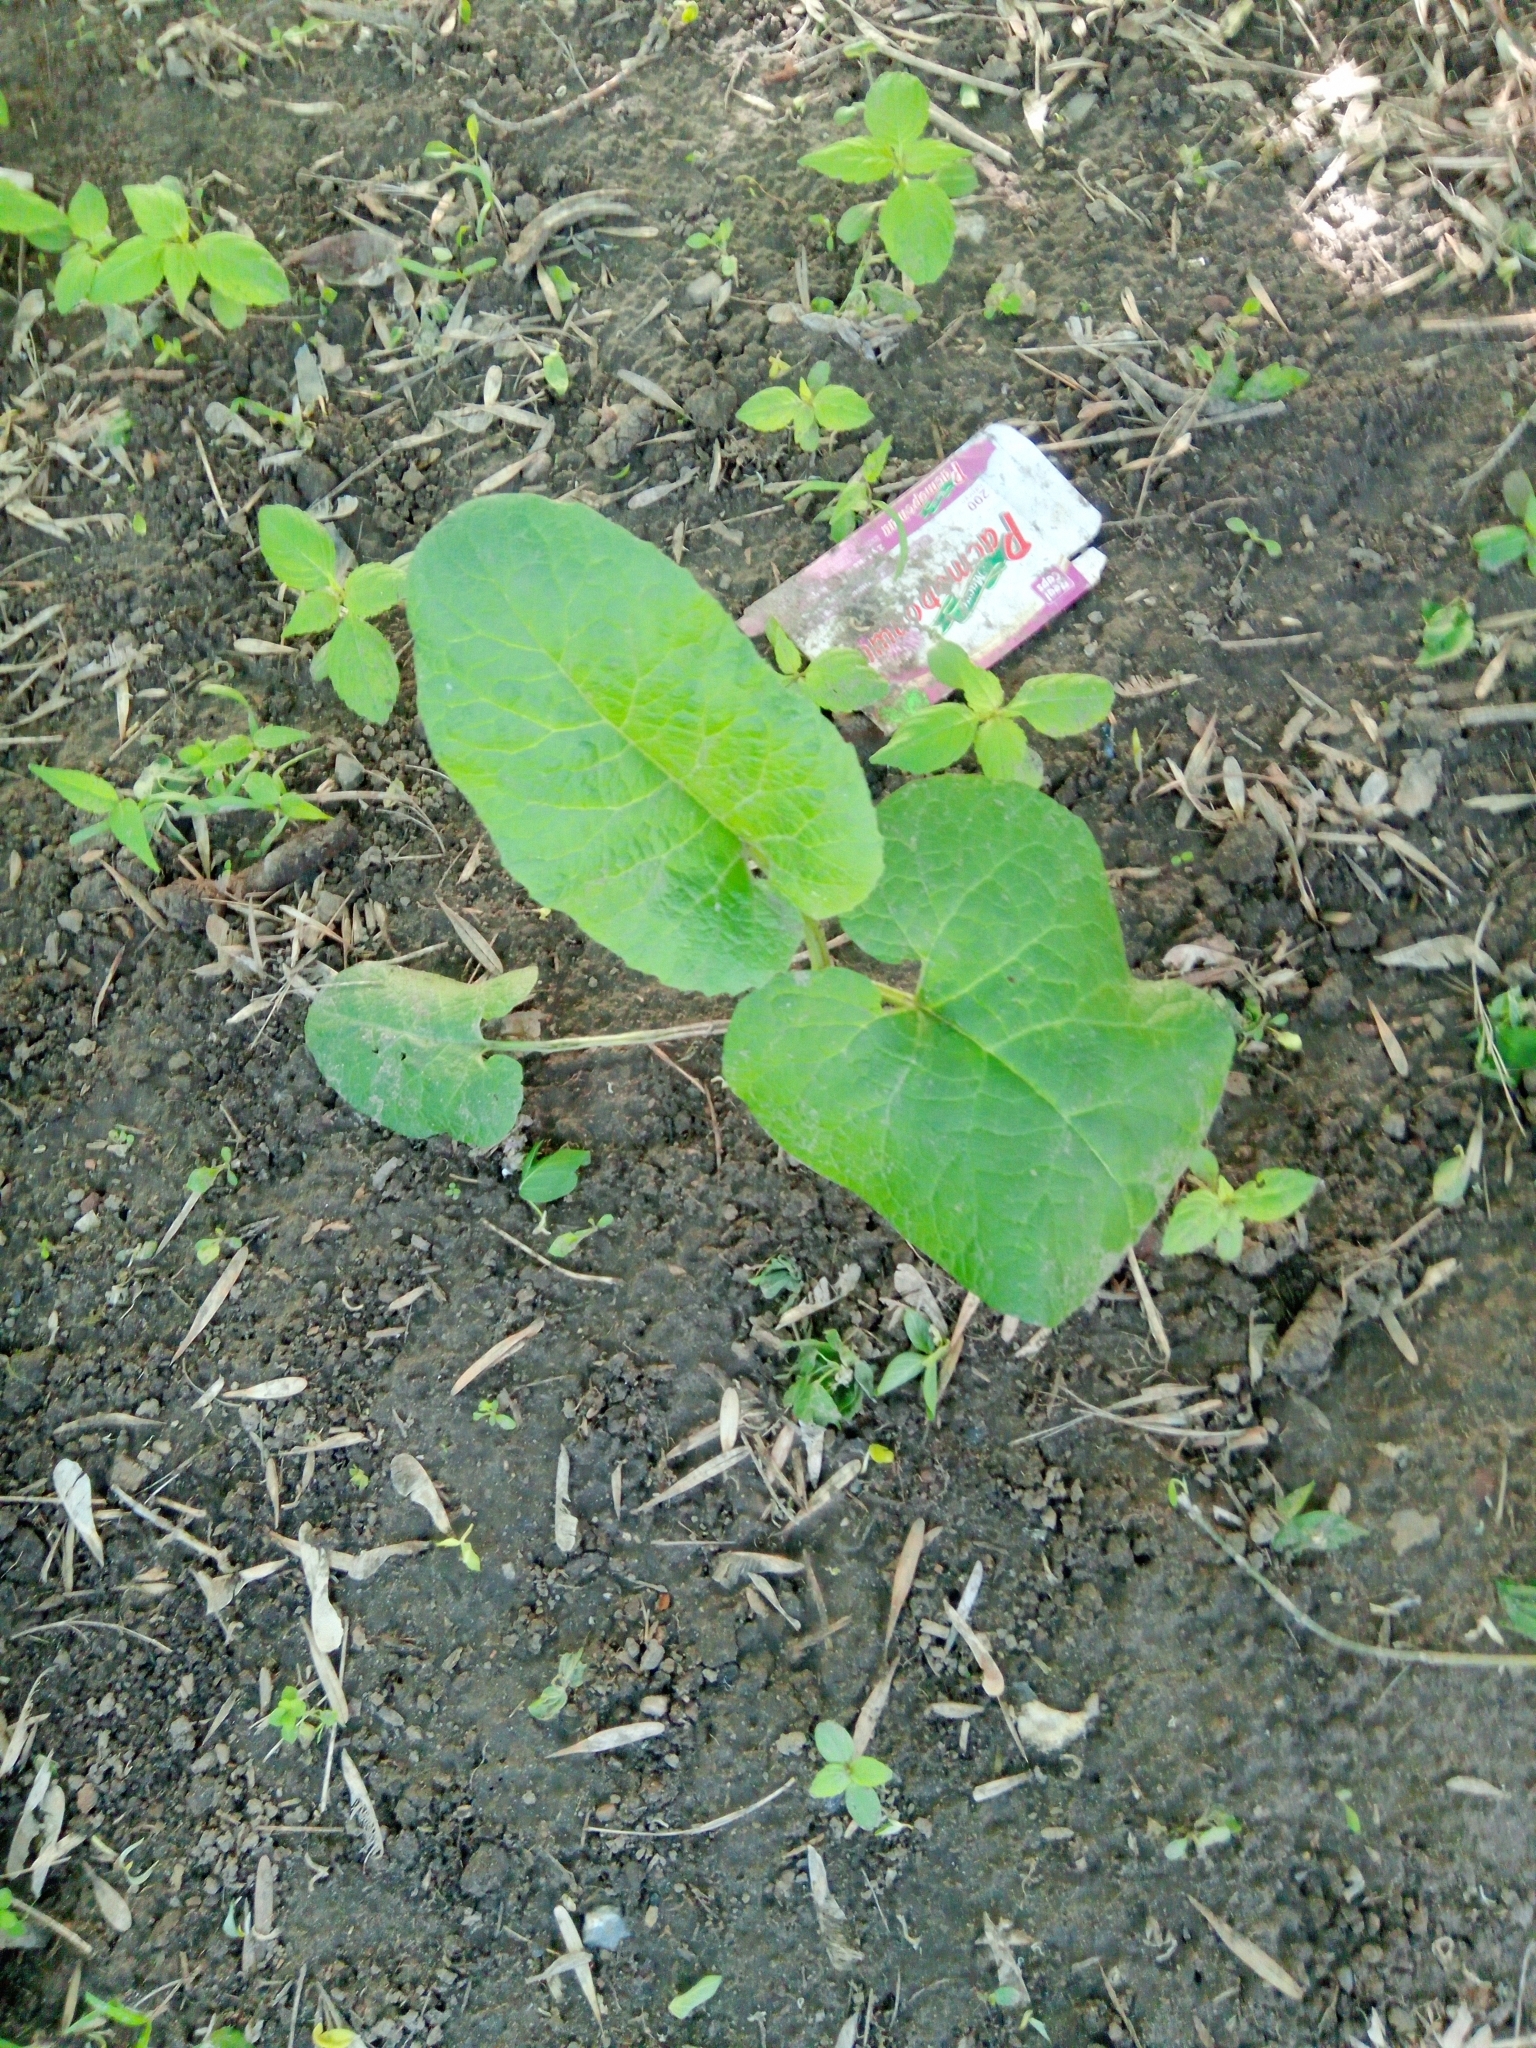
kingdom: Plantae
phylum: Tracheophyta
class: Magnoliopsida
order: Asterales
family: Asteraceae
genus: Arctium
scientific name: Arctium
